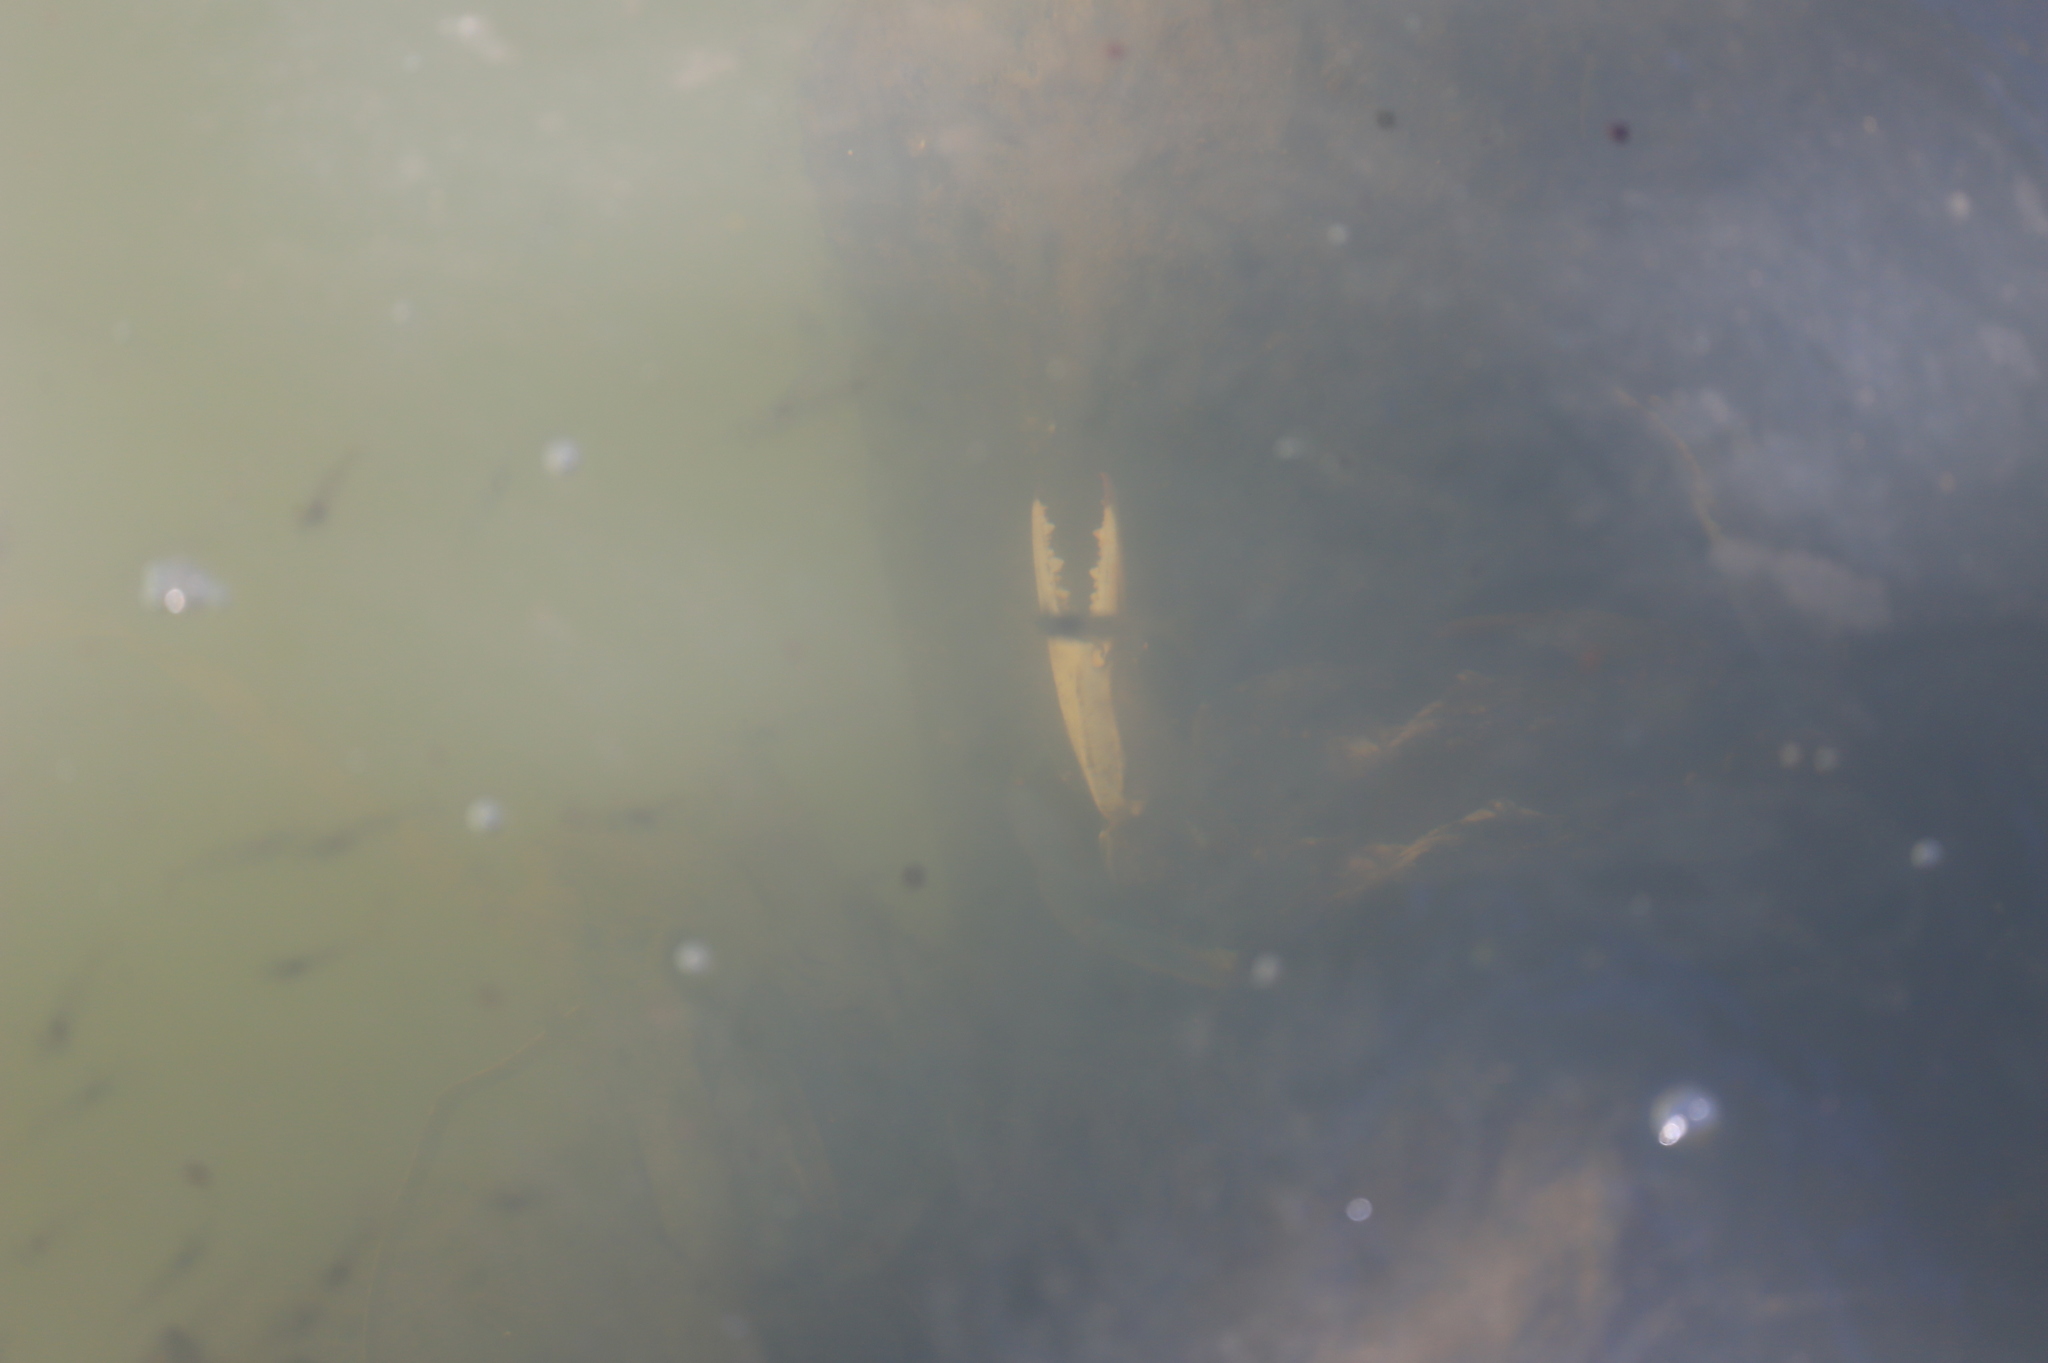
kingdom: Animalia
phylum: Arthropoda
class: Malacostraca
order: Decapoda
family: Portunidae
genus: Callinectes
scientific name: Callinectes sapidus
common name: Blue crab
